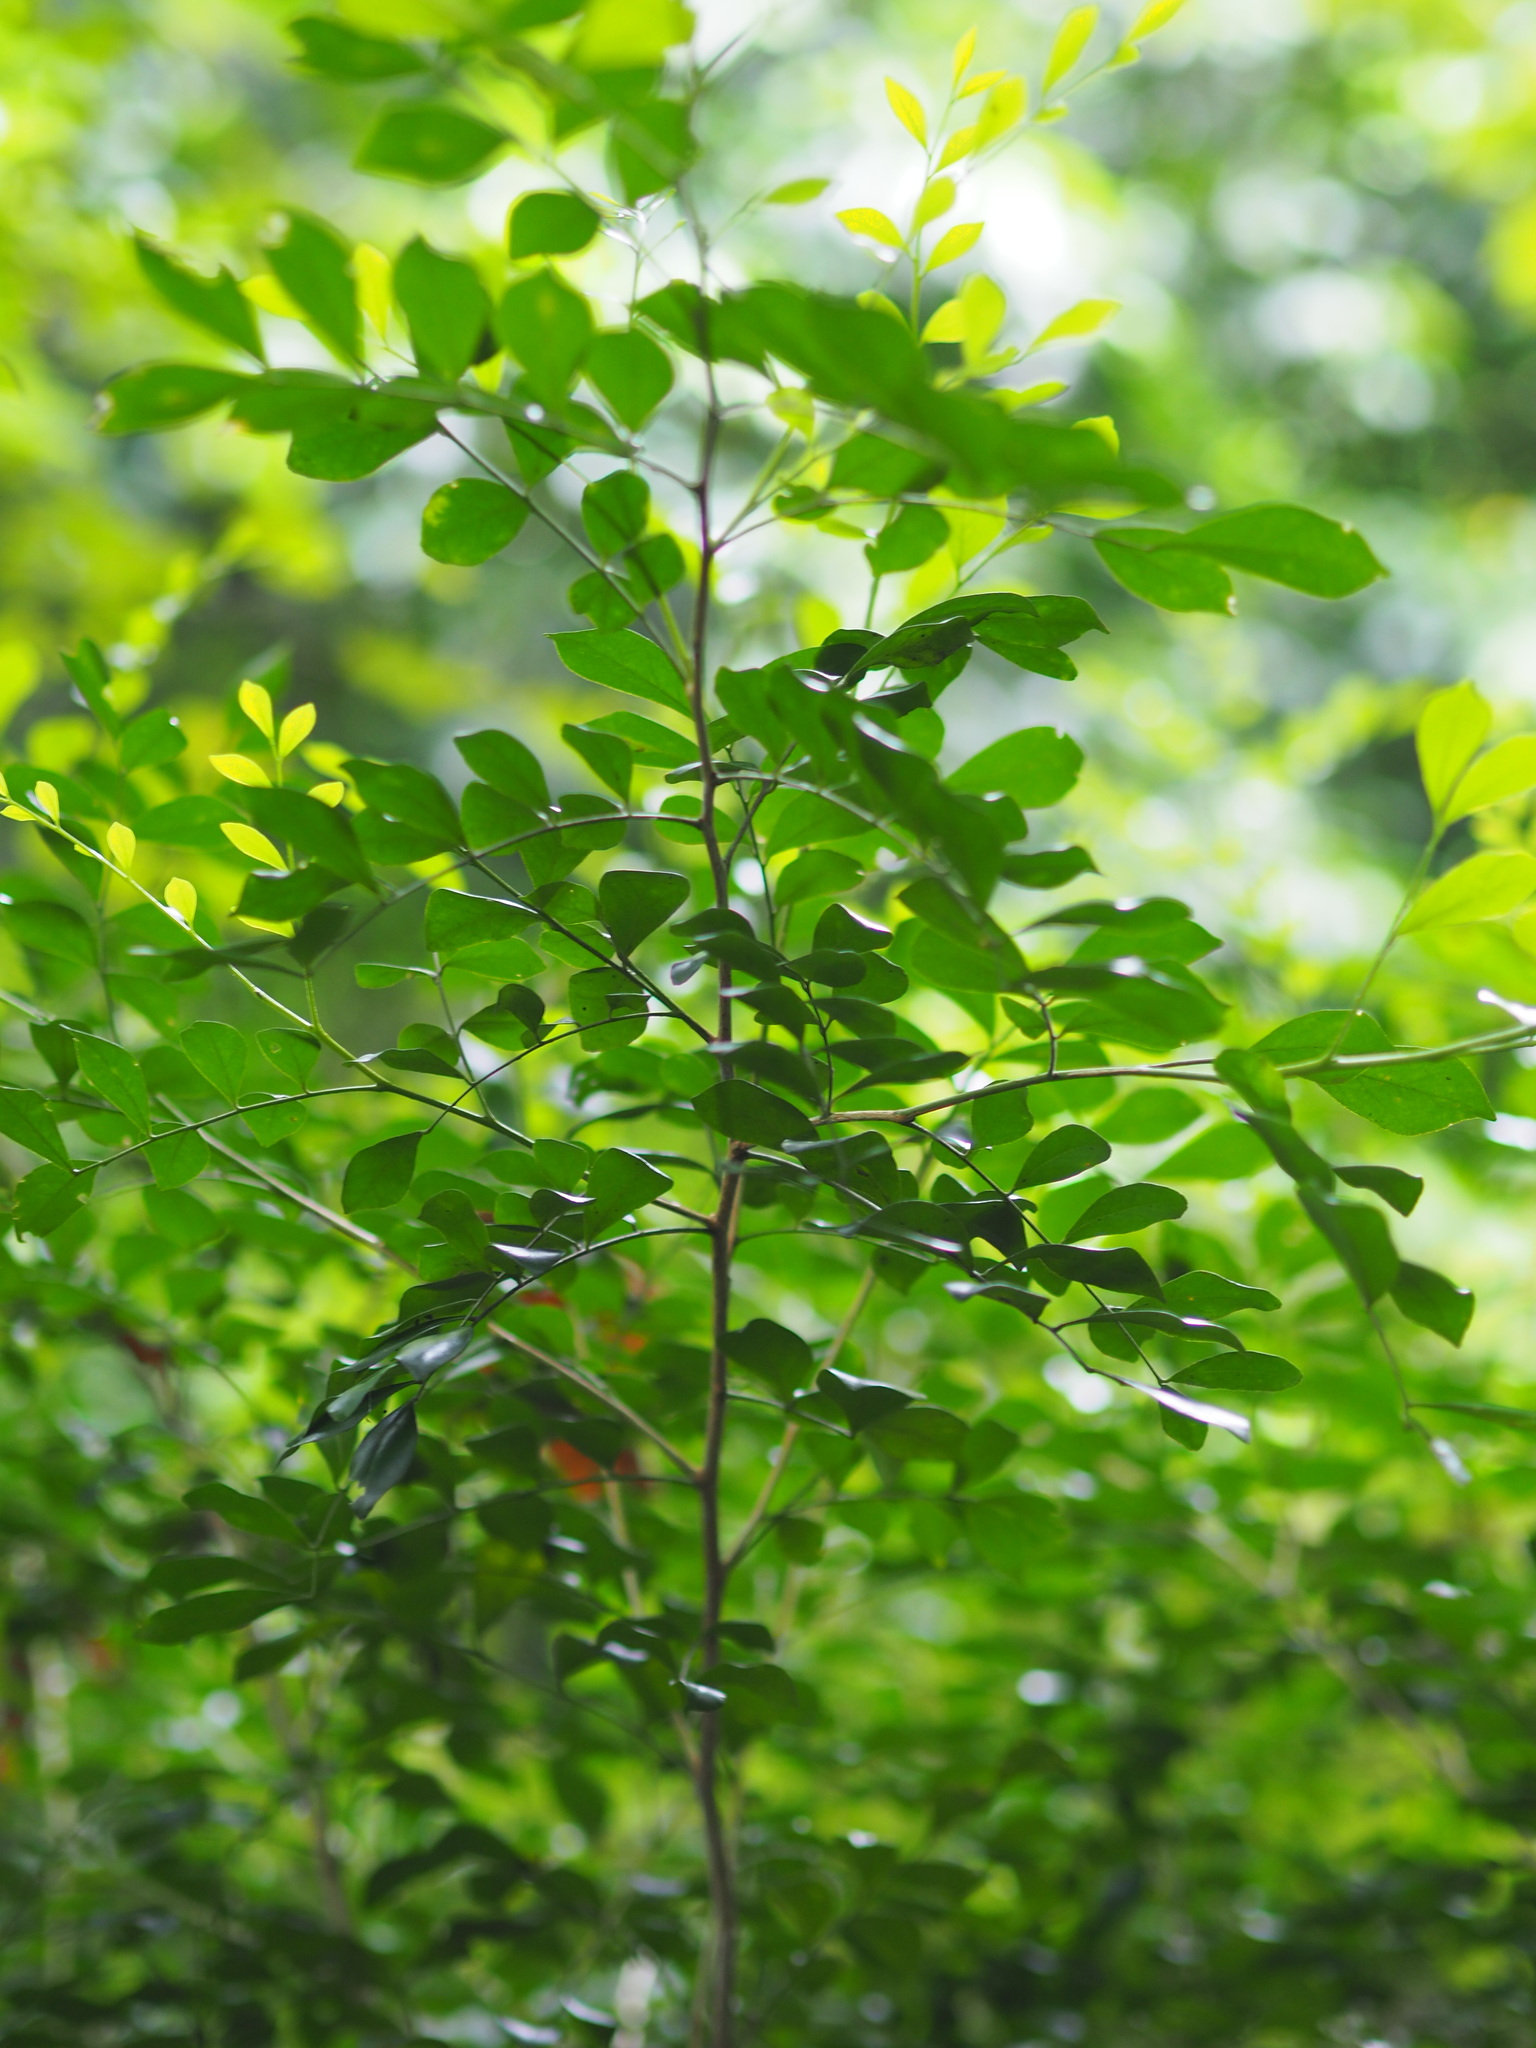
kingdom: Plantae
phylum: Tracheophyta
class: Magnoliopsida
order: Sapindales
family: Rutaceae
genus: Murraya
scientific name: Murraya paniculata
